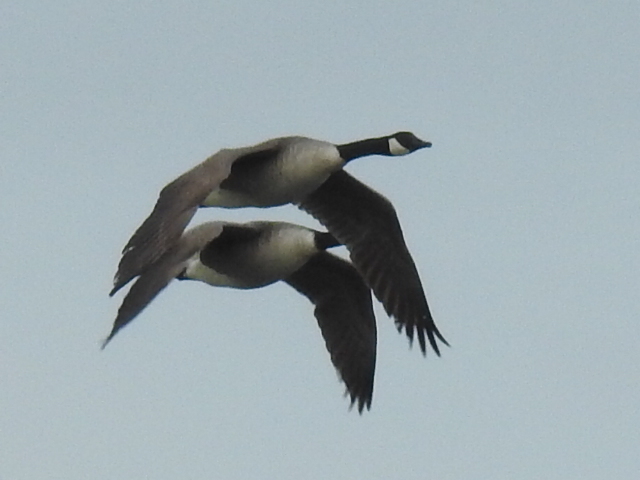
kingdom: Animalia
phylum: Chordata
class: Aves
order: Anseriformes
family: Anatidae
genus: Branta
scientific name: Branta canadensis
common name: Canada goose
